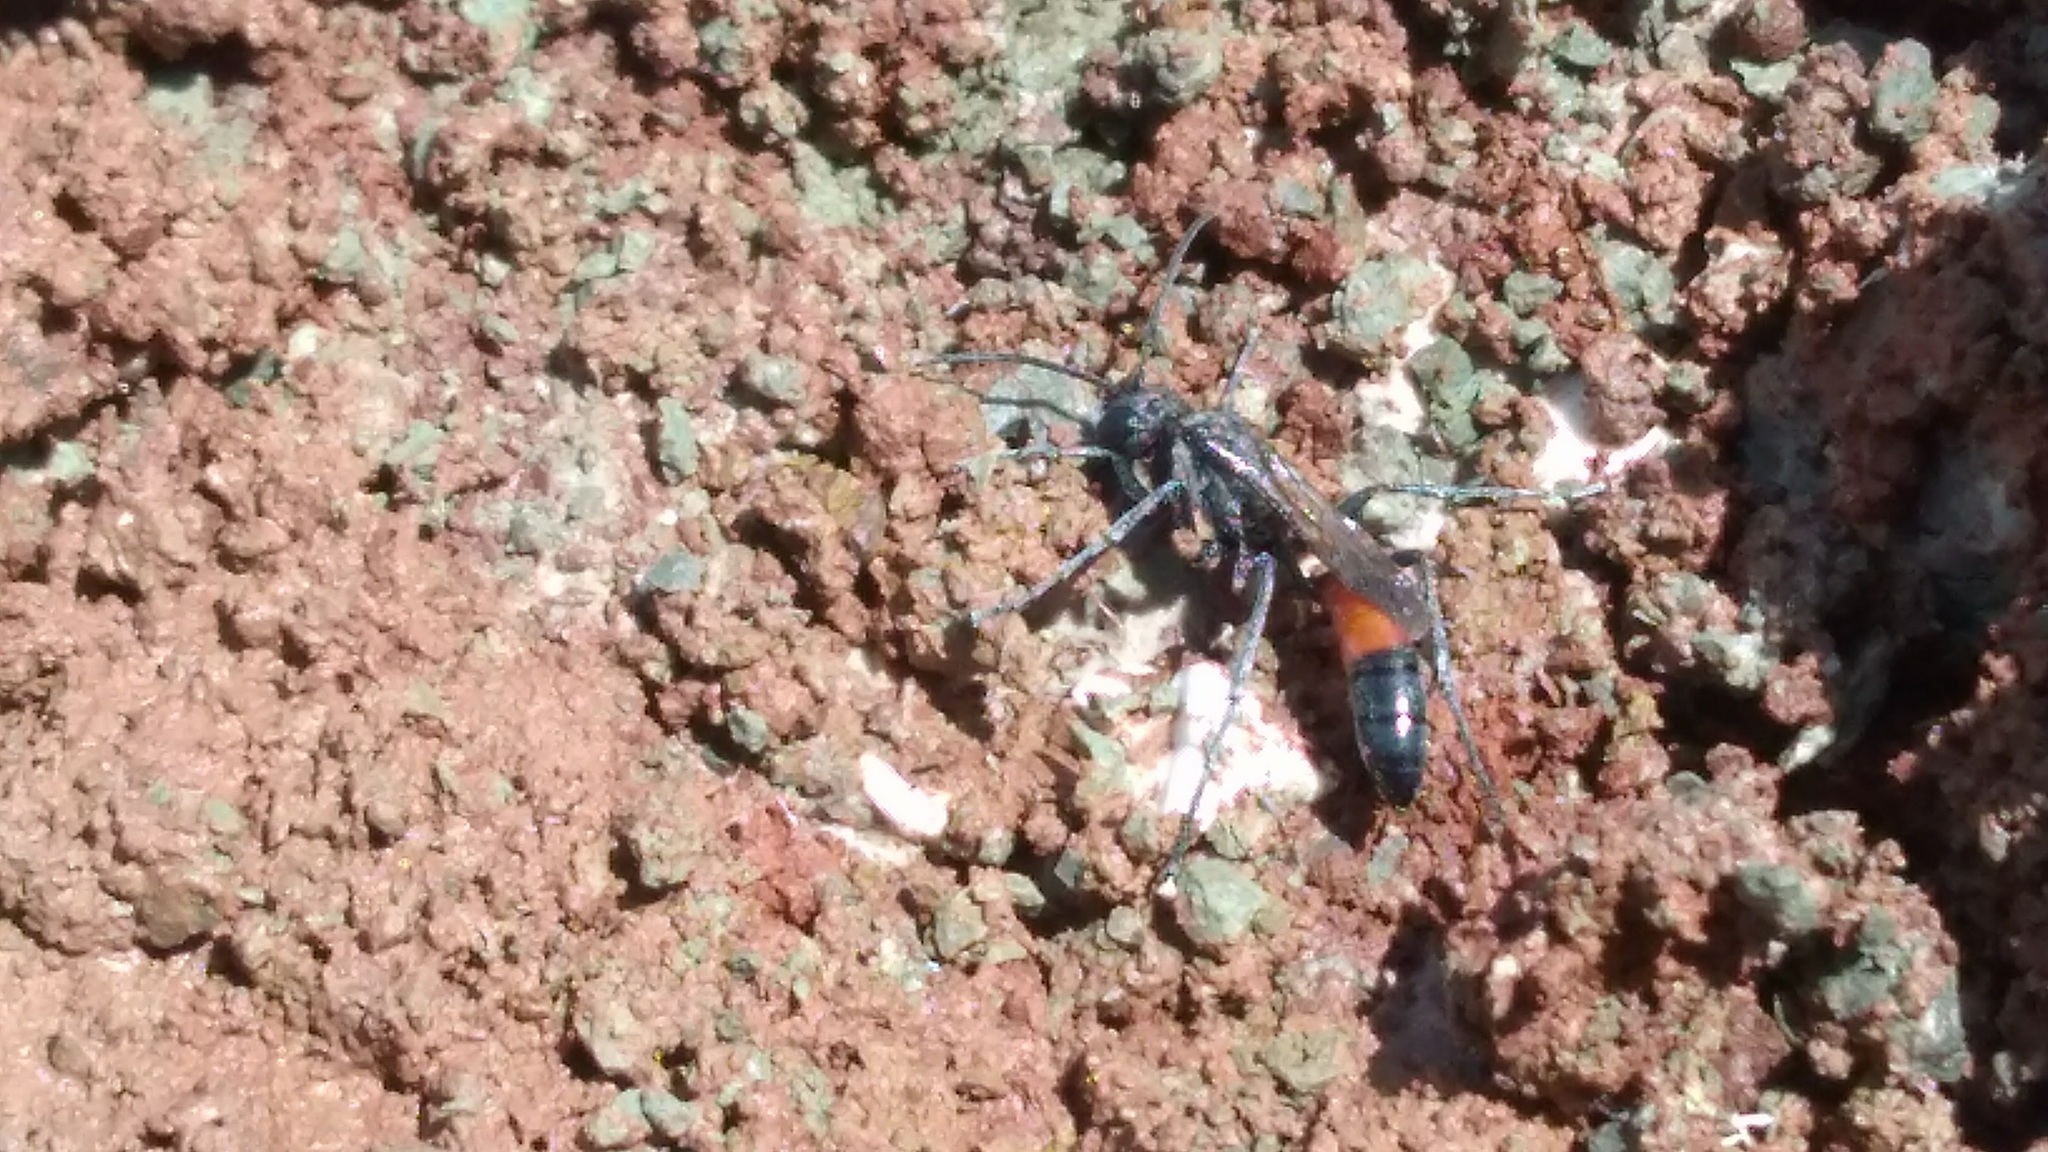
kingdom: Animalia
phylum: Arthropoda
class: Insecta
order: Hymenoptera
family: Sphecidae
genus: Podalonia
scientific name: Podalonia
